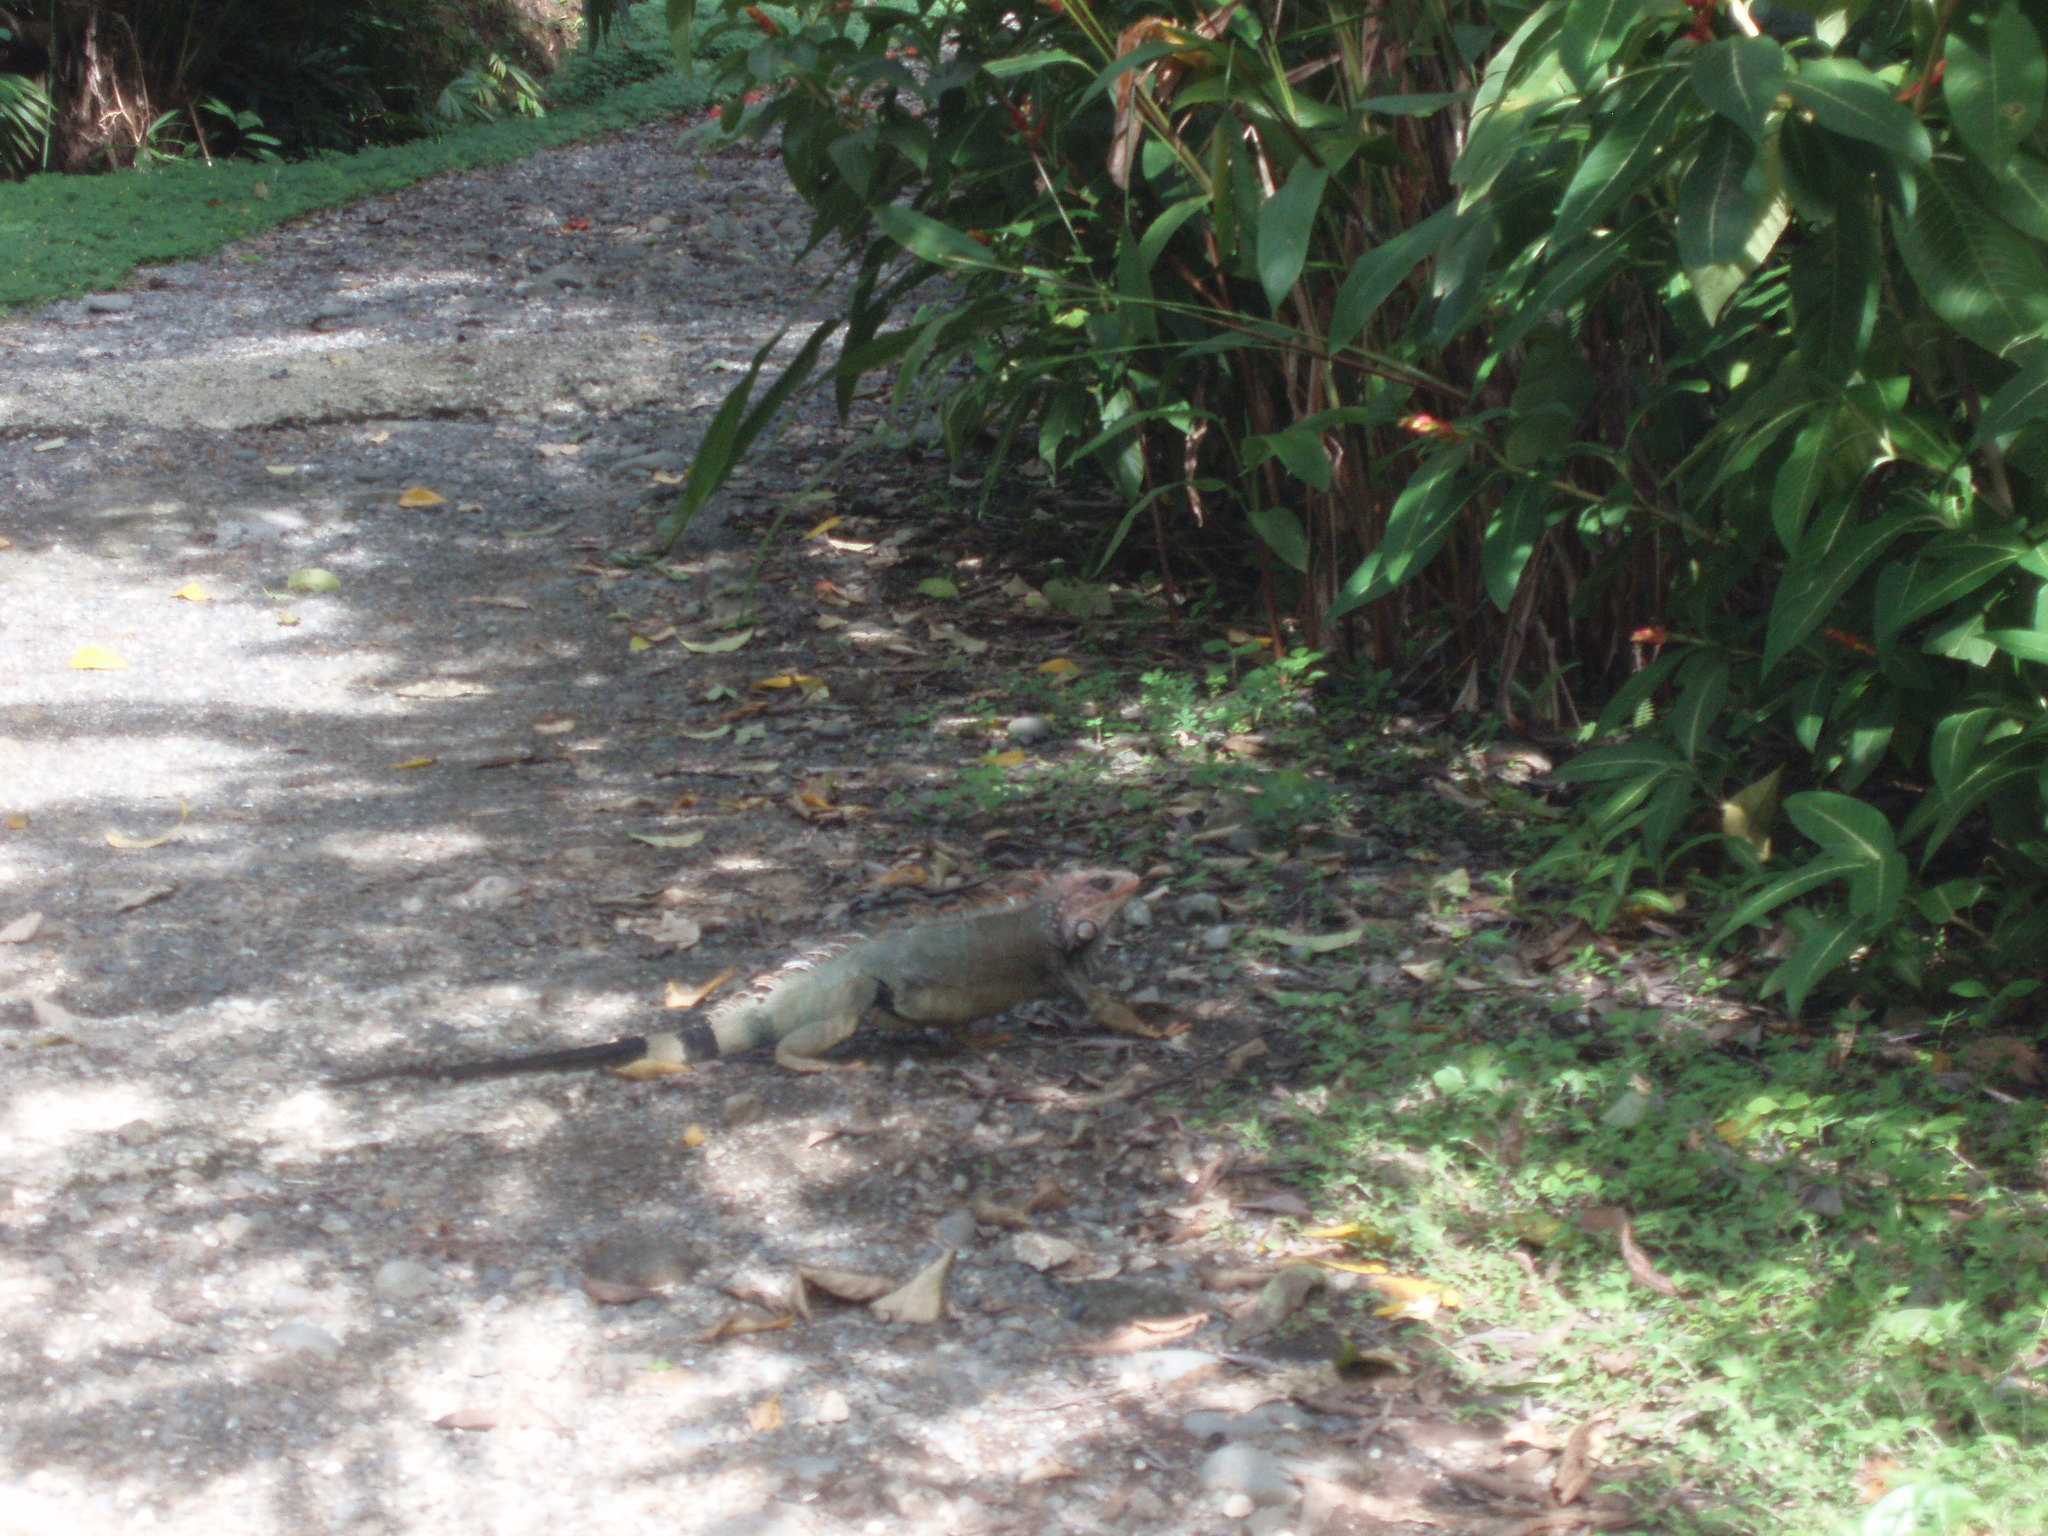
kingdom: Animalia
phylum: Chordata
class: Squamata
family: Iguanidae
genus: Iguana
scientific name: Iguana iguana
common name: Green iguana
